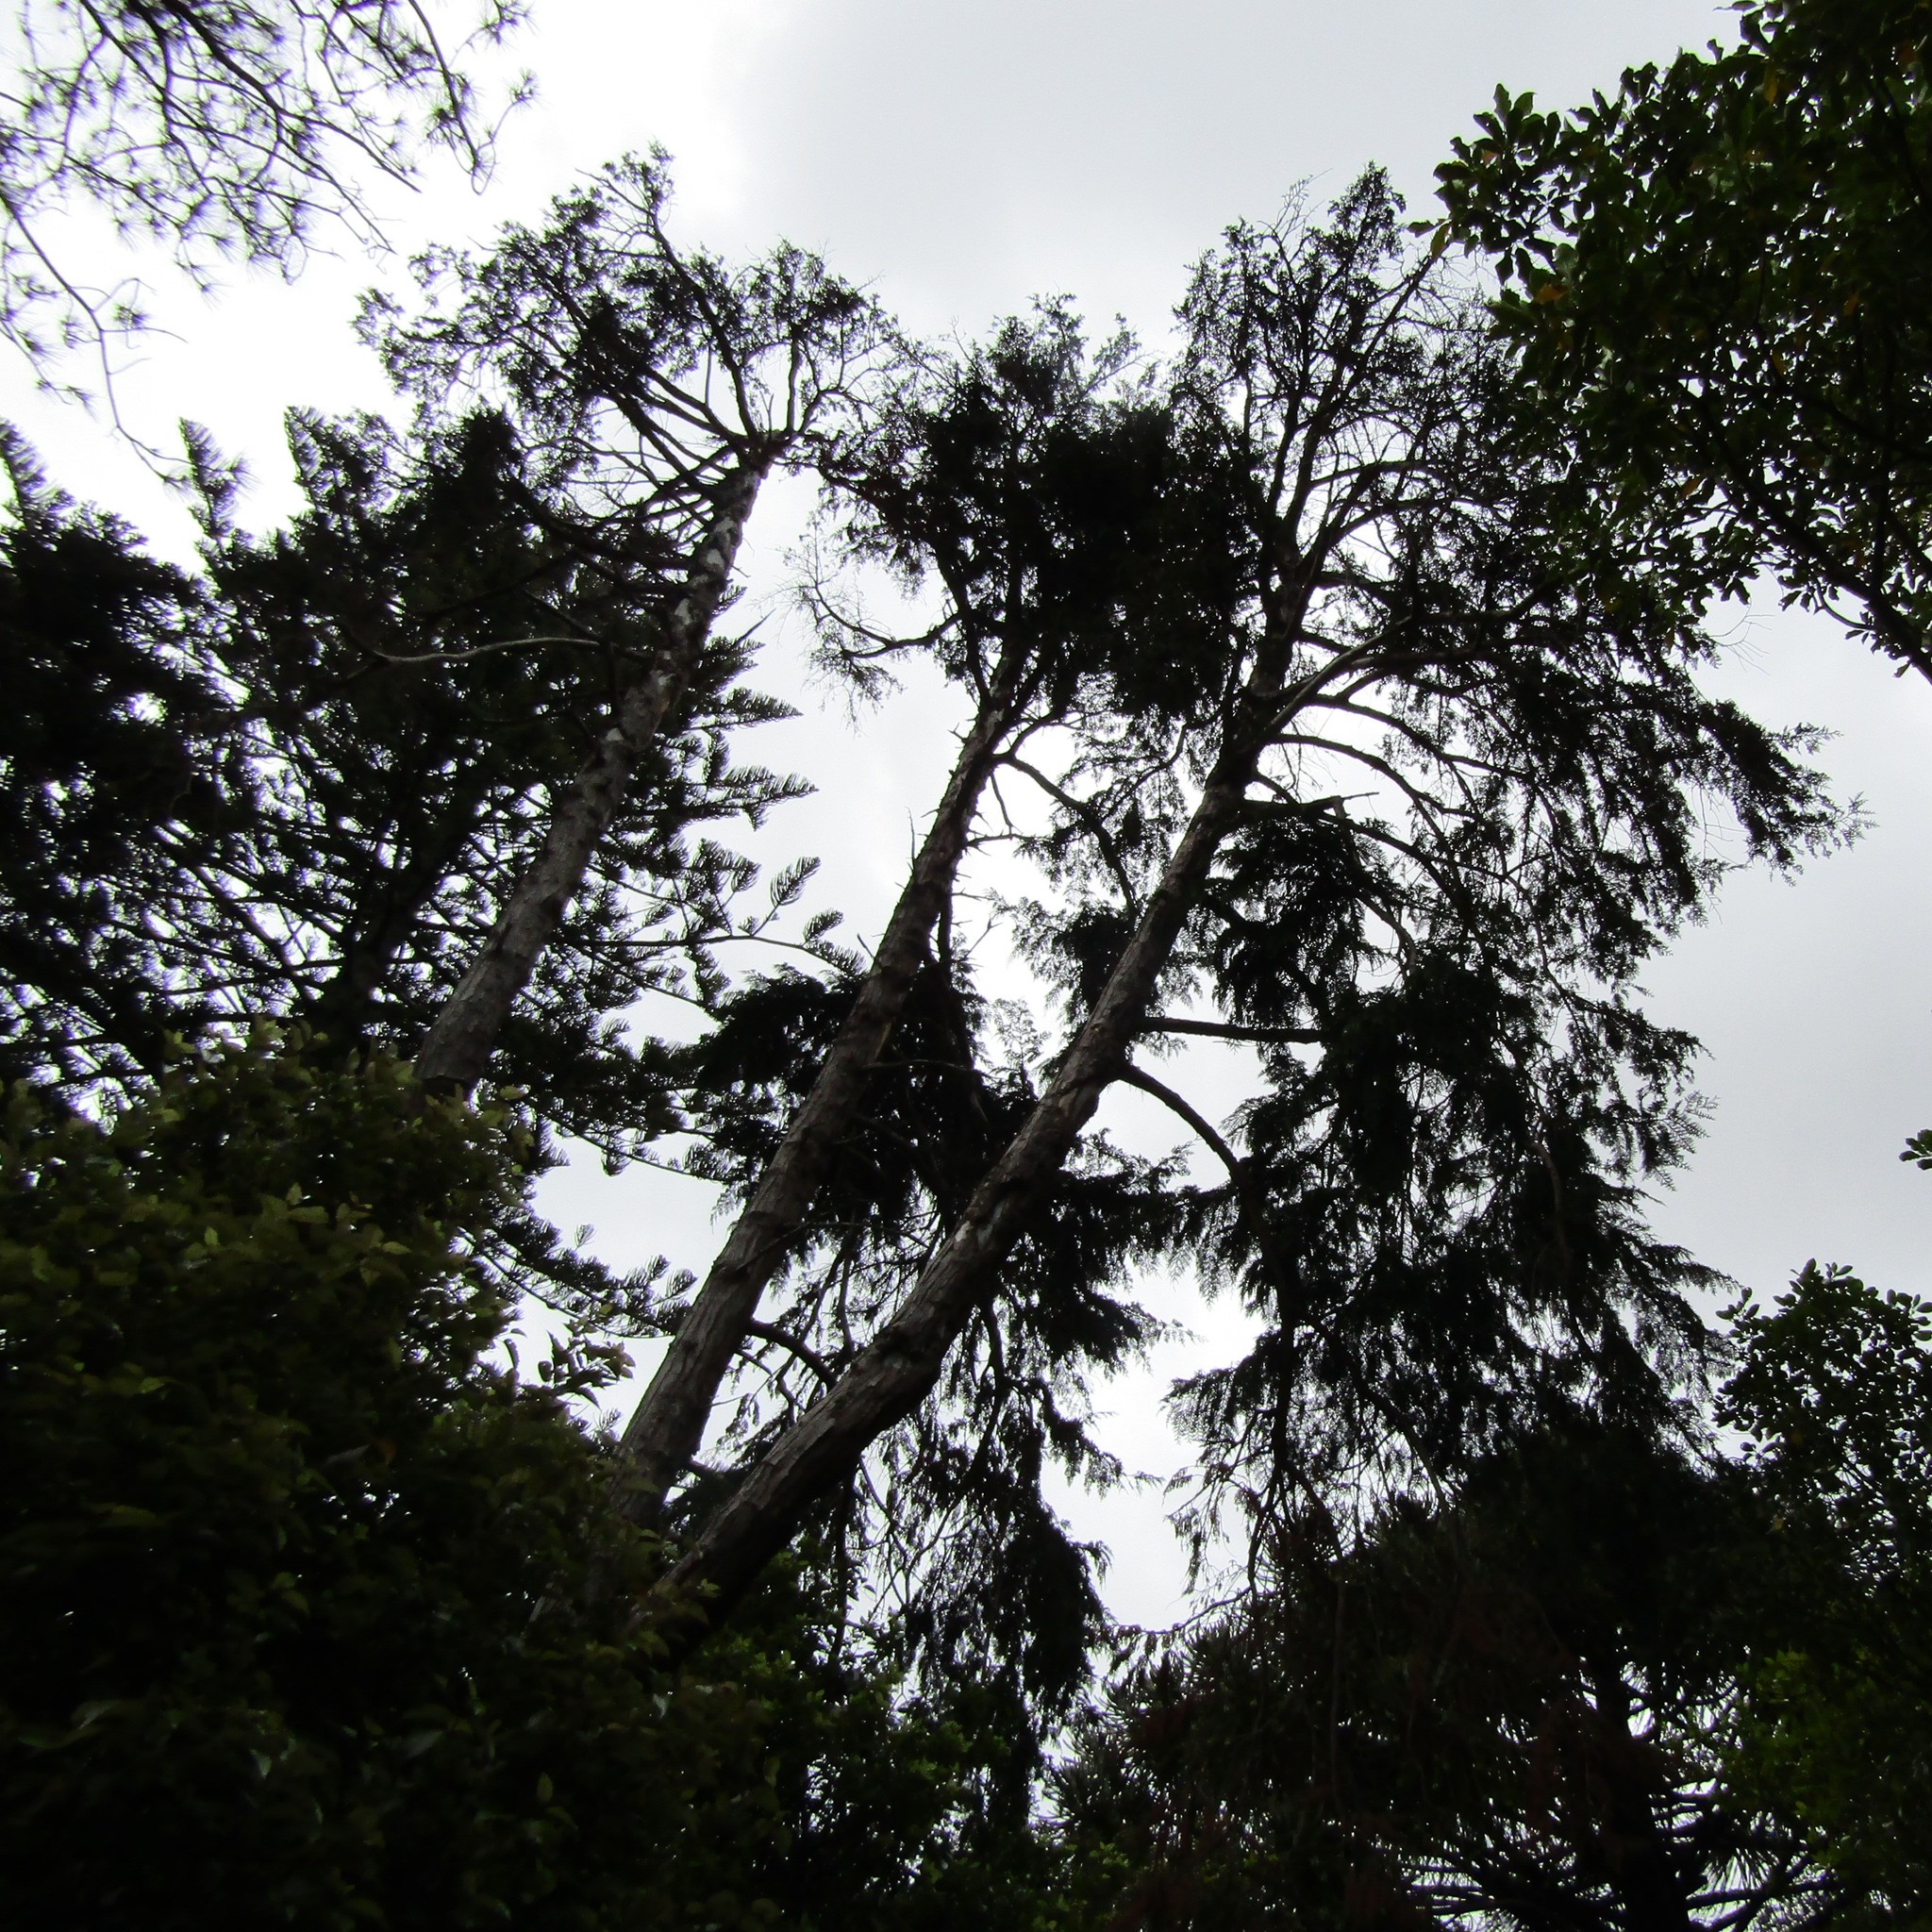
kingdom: Animalia
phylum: Chordata
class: Aves
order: Psittaciformes
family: Psittacidae
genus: Nestor
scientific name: Nestor meridionalis
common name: New zealand kaka
